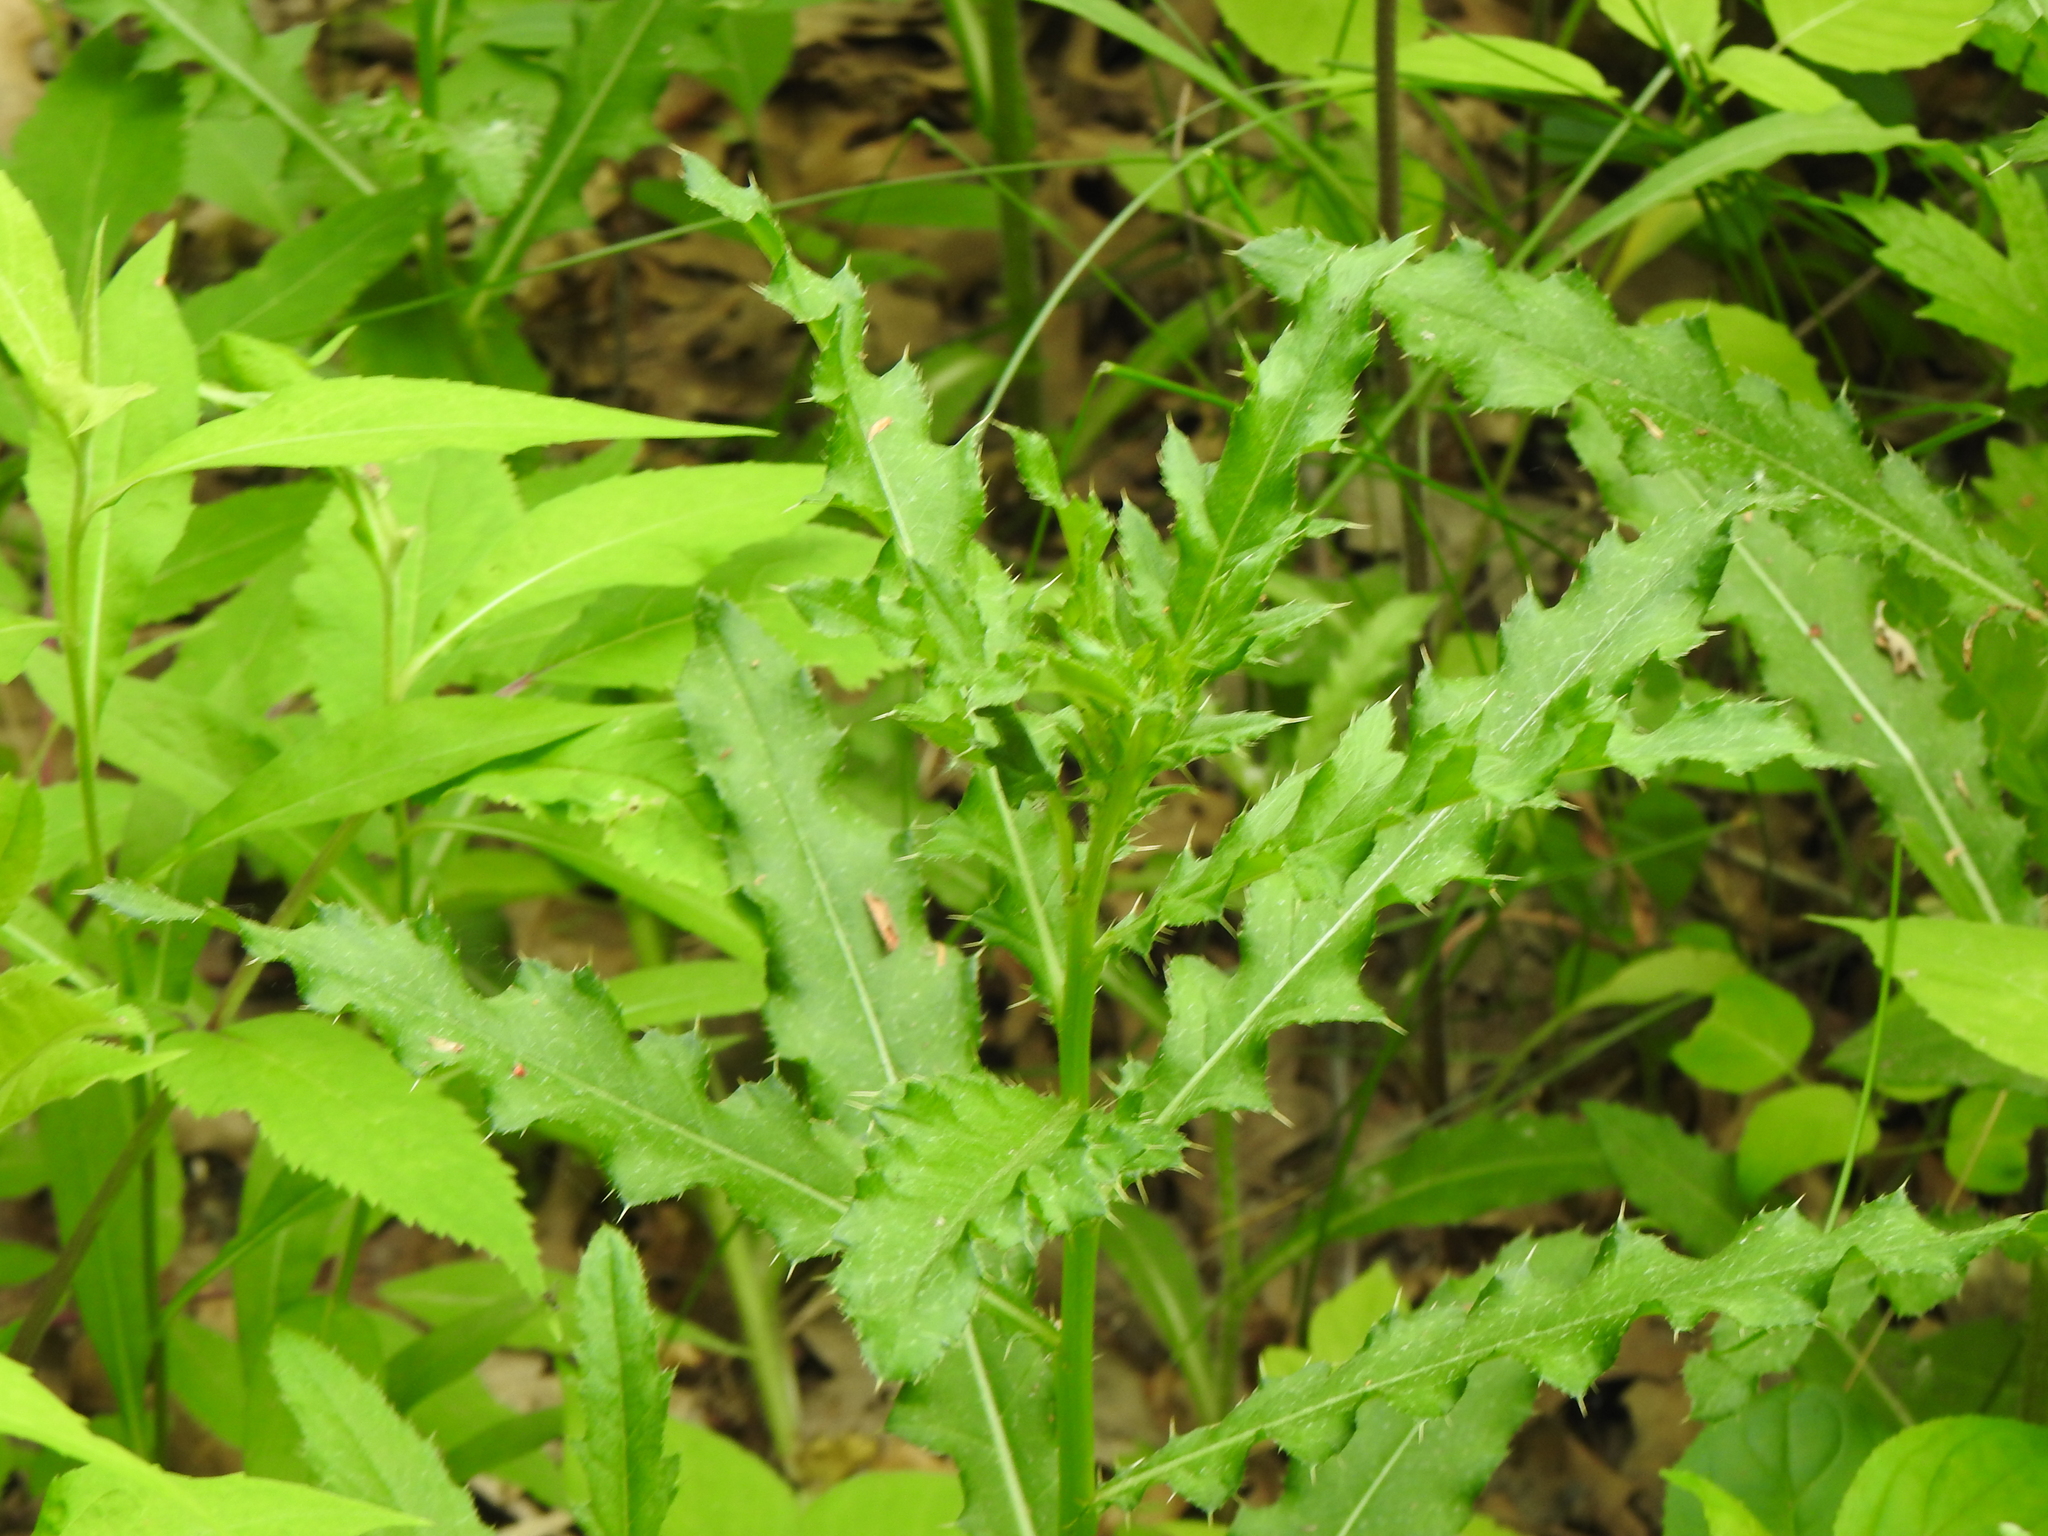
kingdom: Plantae
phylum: Tracheophyta
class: Magnoliopsida
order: Asterales
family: Asteraceae
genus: Cirsium
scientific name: Cirsium arvense
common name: Creeping thistle
